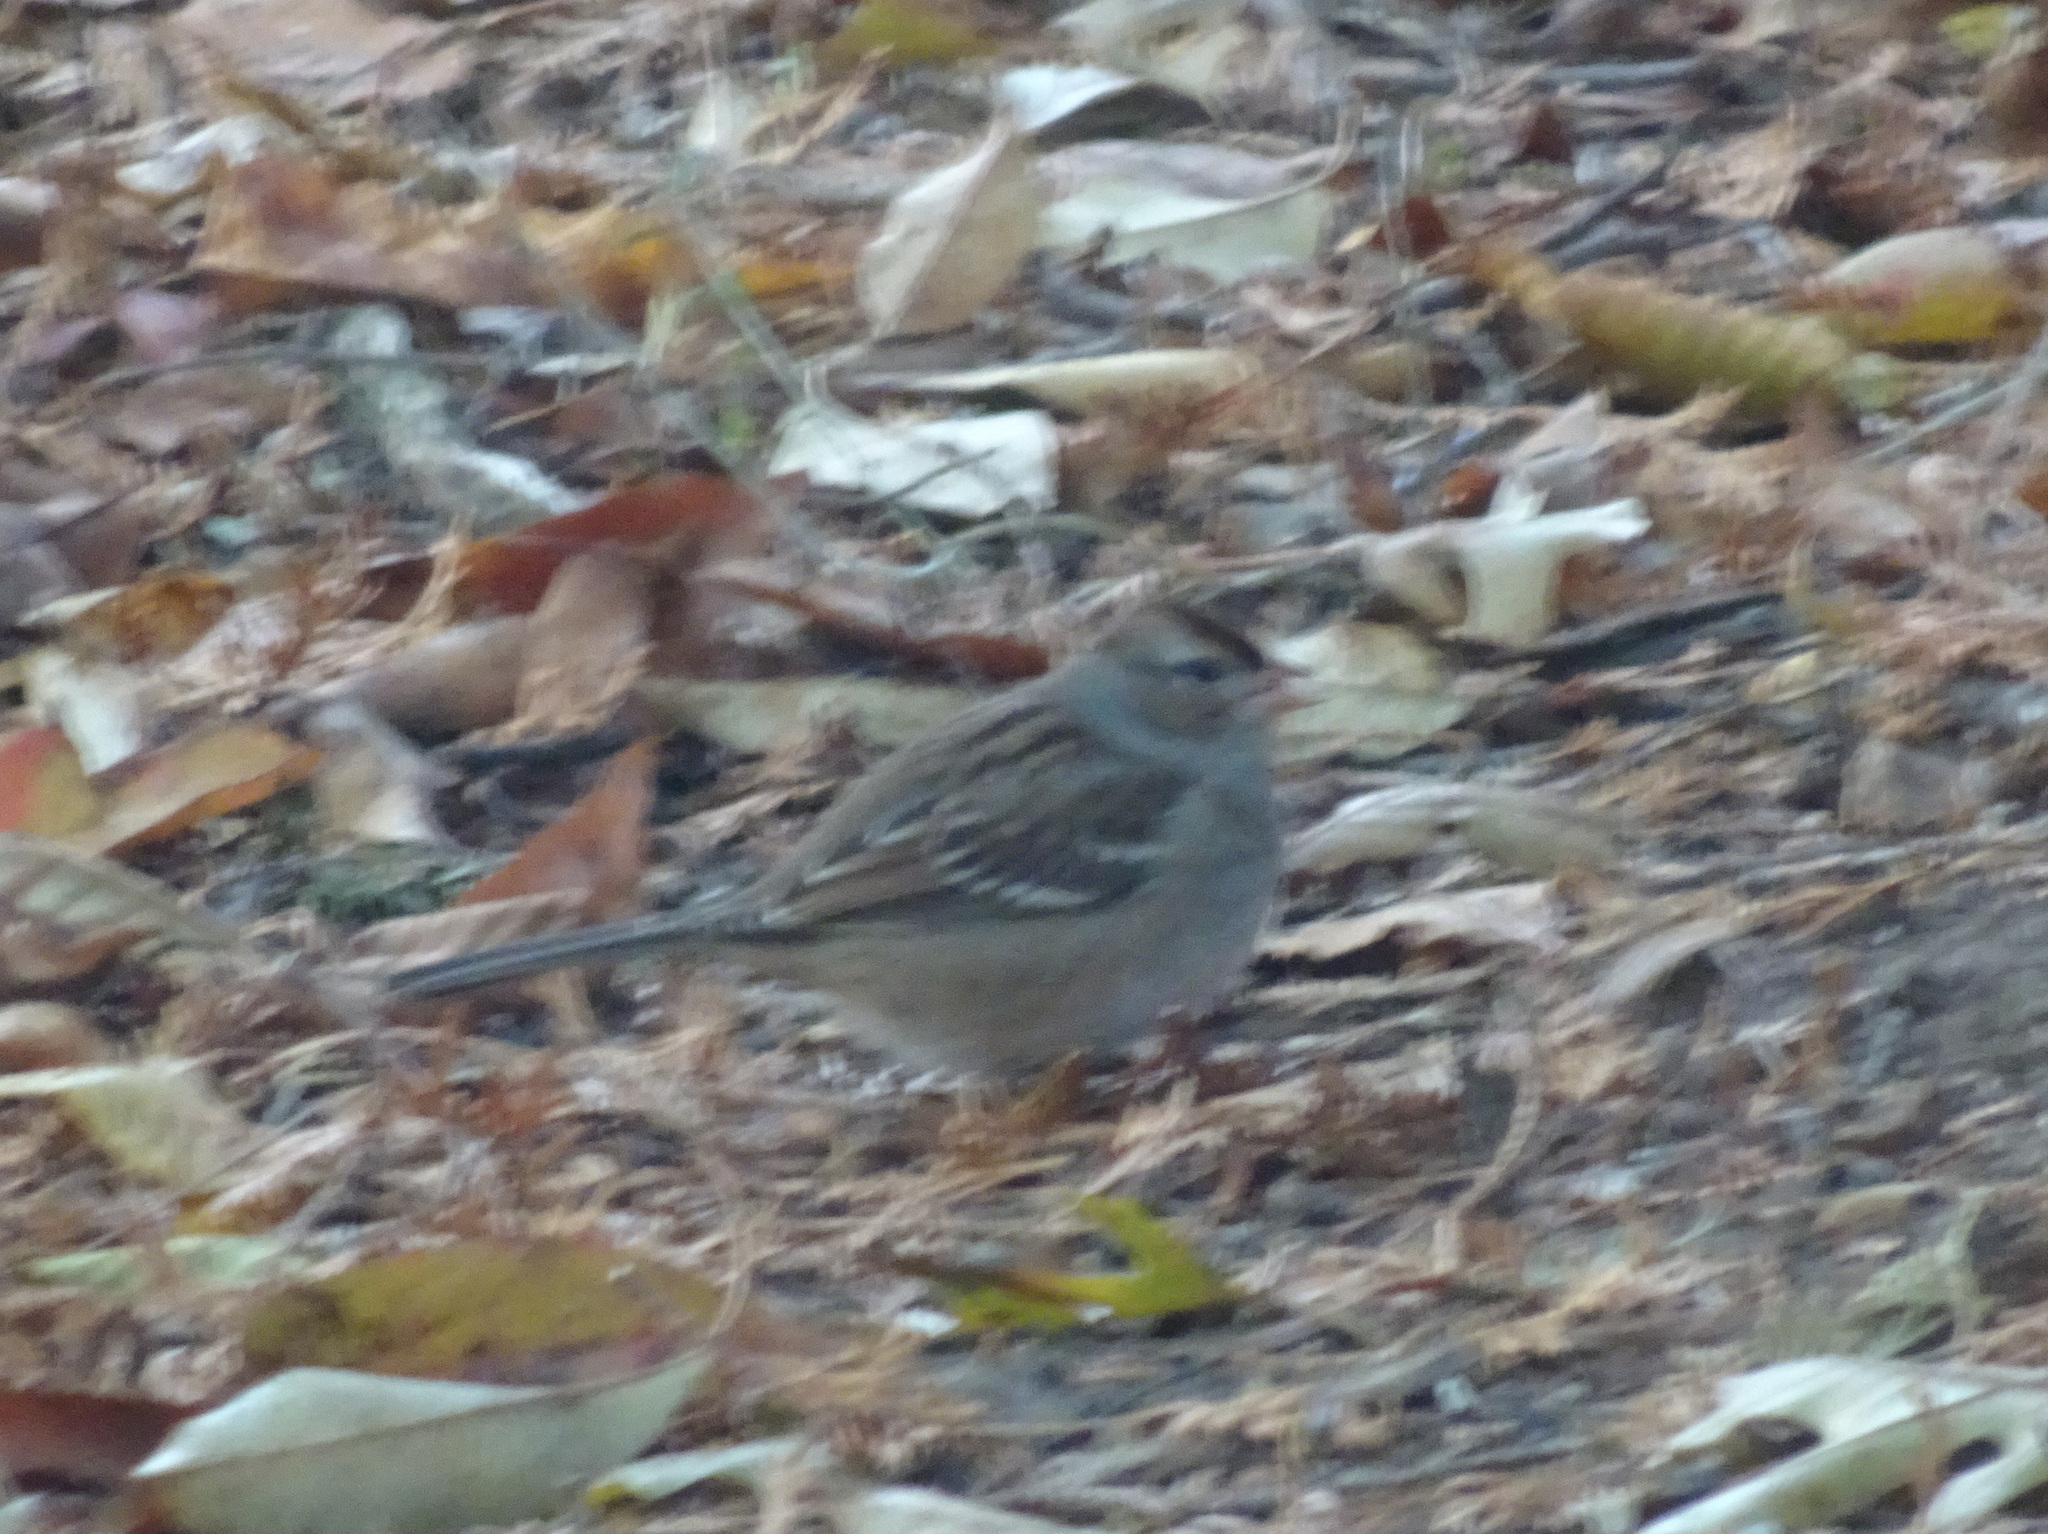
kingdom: Animalia
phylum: Chordata
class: Aves
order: Passeriformes
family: Passerellidae
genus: Zonotrichia
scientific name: Zonotrichia leucophrys
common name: White-crowned sparrow
